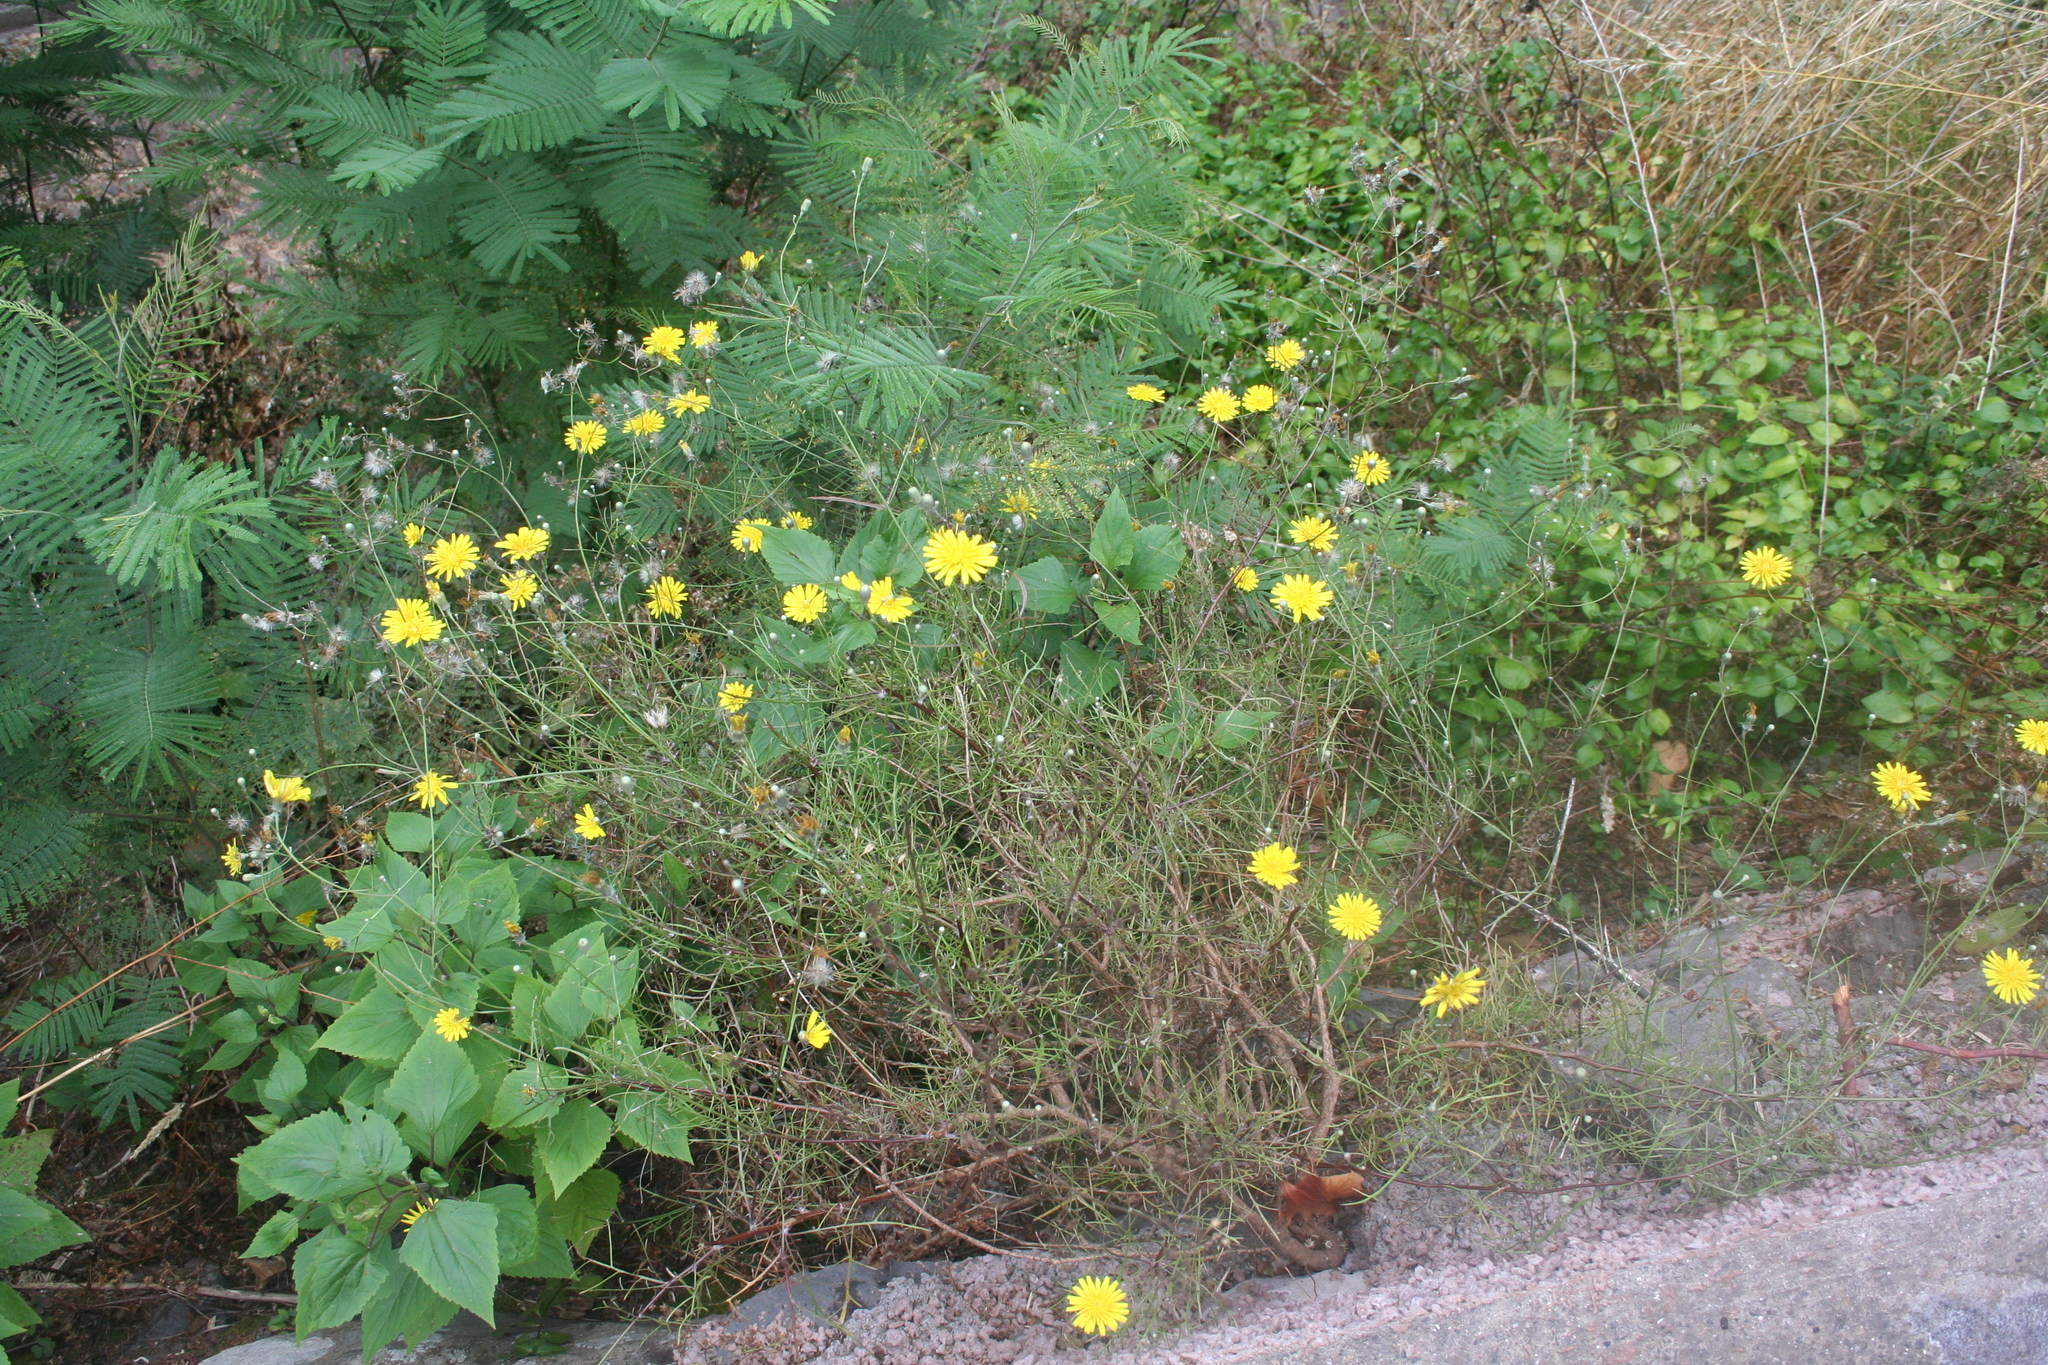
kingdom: Plantae
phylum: Tracheophyta
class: Magnoliopsida
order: Asterales
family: Asteraceae
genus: Tolpis
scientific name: Tolpis succulenta
